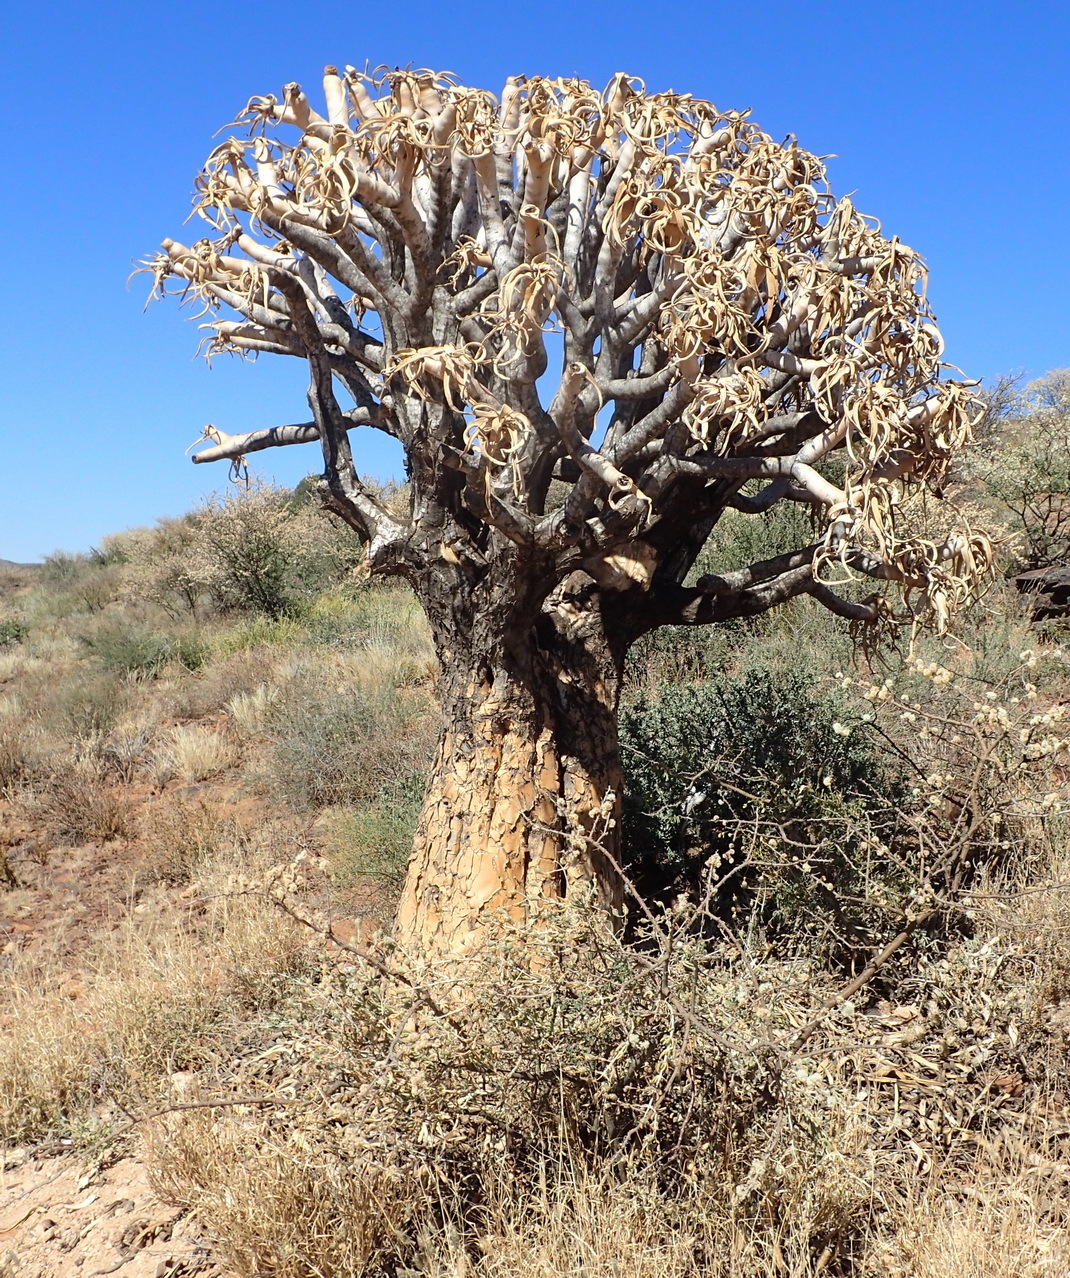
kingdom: Plantae
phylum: Tracheophyta
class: Liliopsida
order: Asparagales
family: Asphodelaceae
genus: Aloidendron
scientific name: Aloidendron dichotomum
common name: Quiver tree
